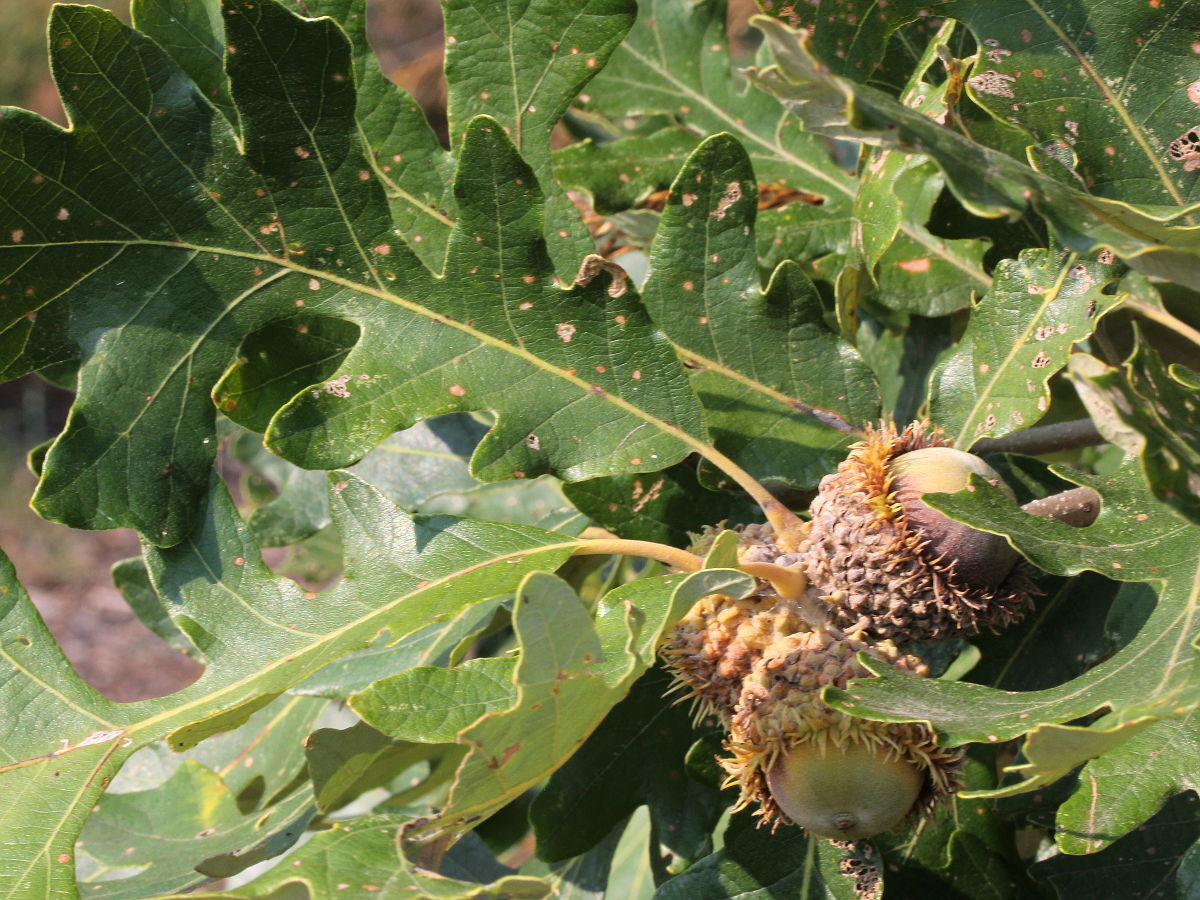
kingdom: Plantae
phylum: Tracheophyta
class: Magnoliopsida
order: Fagales
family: Fagaceae
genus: Quercus
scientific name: Quercus macrocarpa
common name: Bur oak
